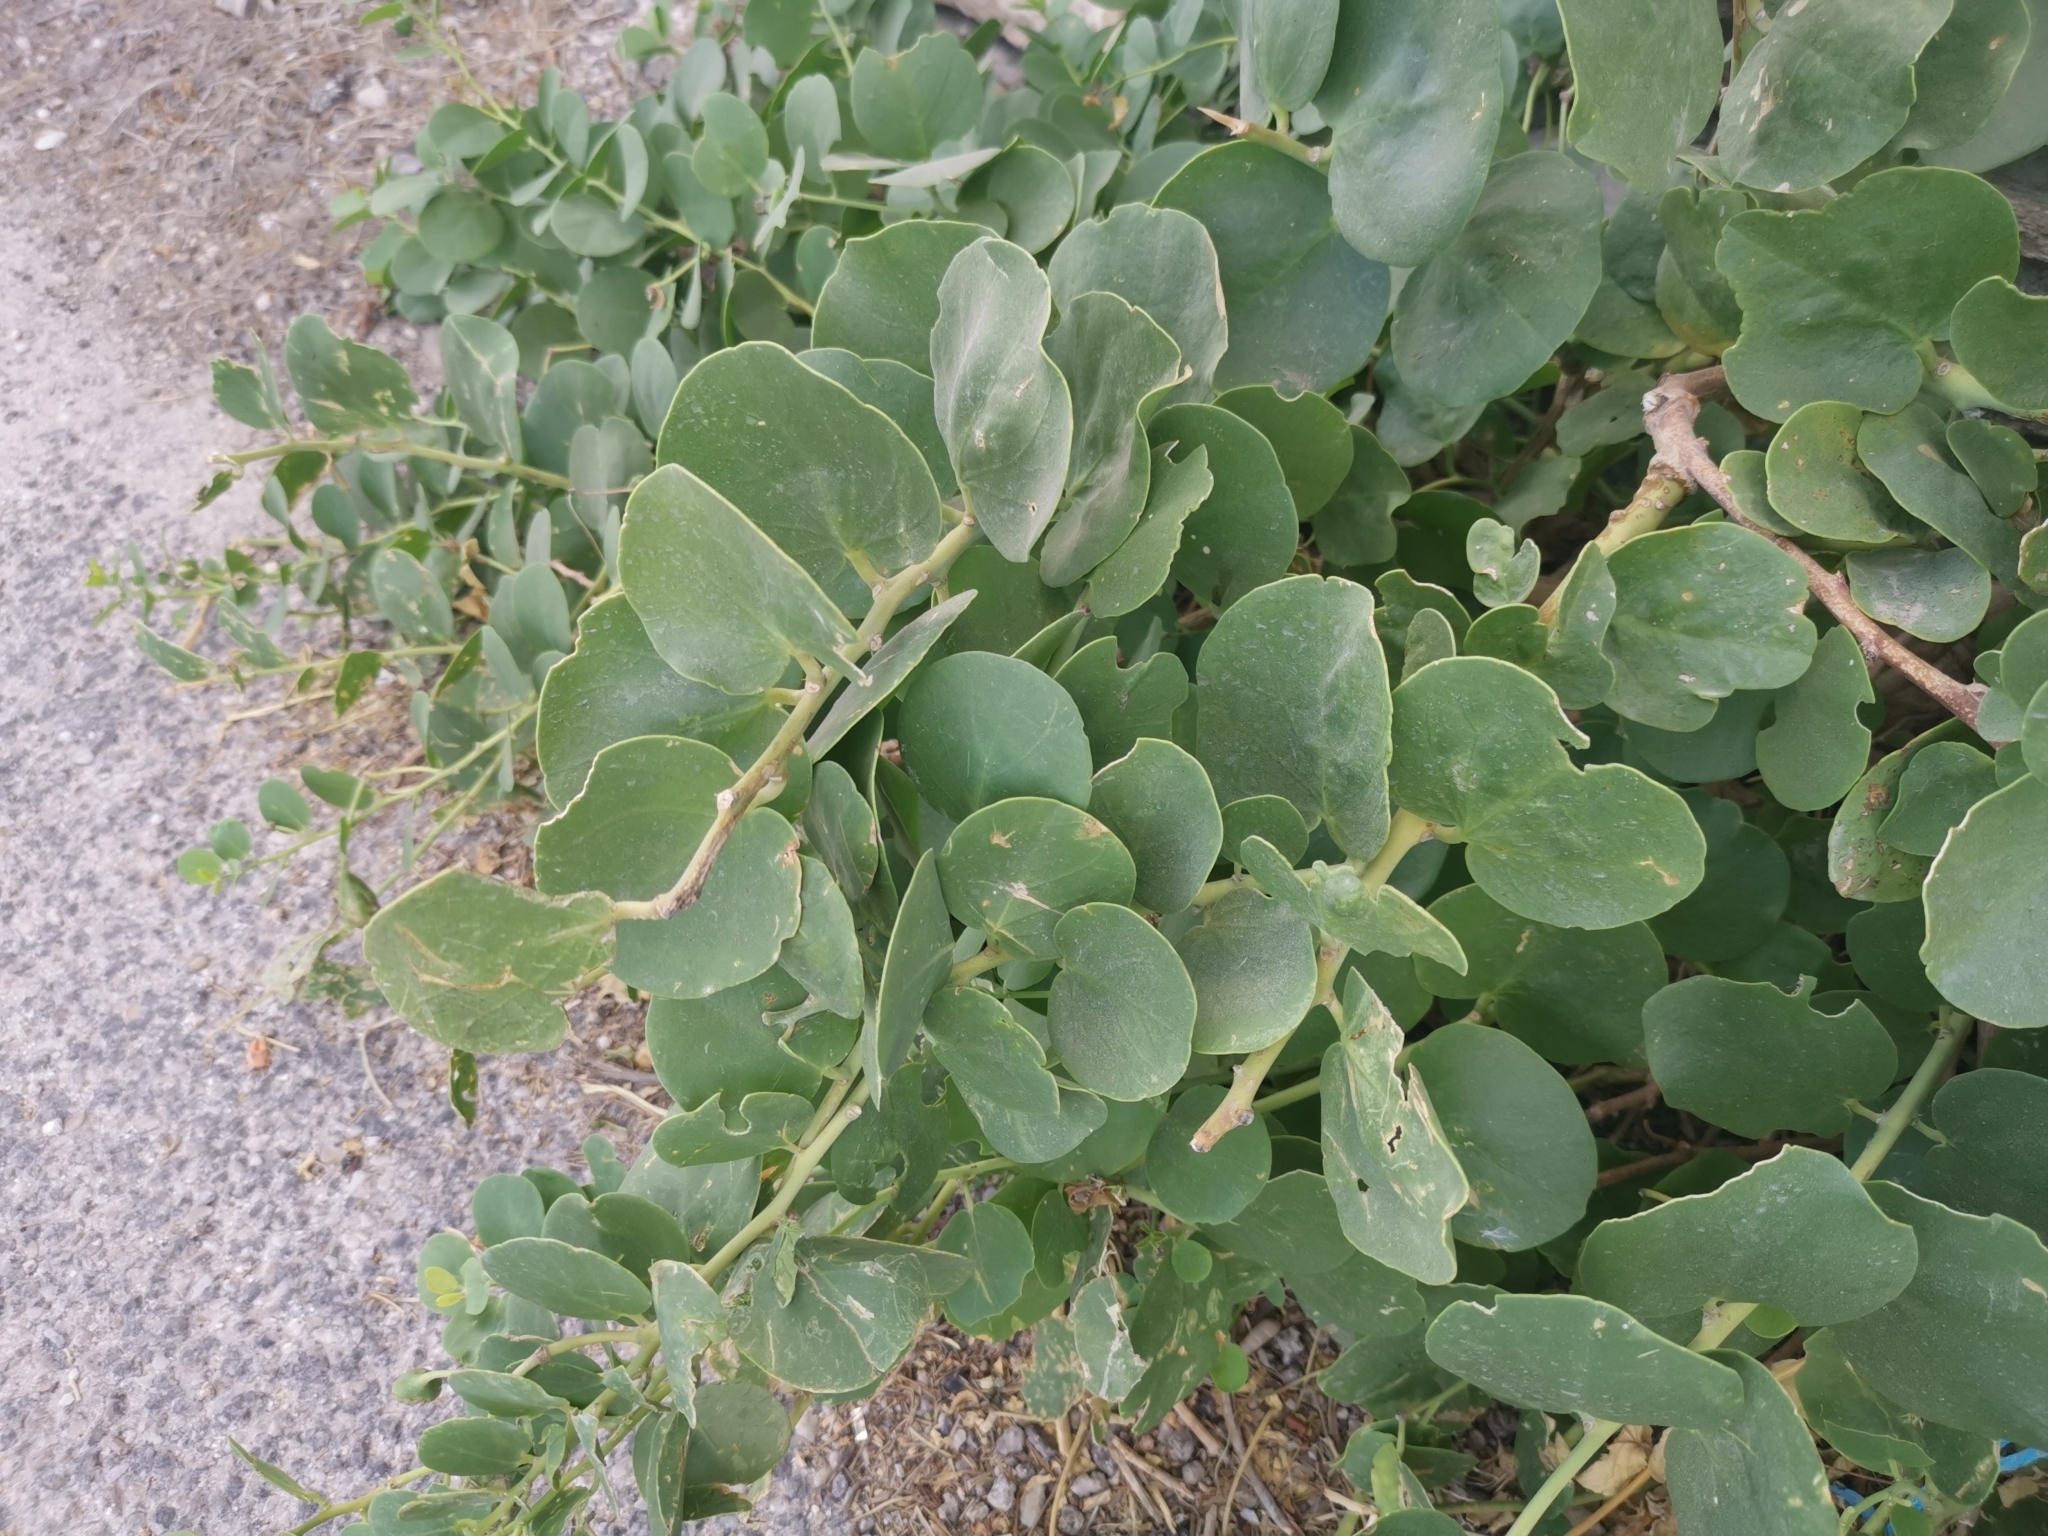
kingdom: Plantae
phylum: Tracheophyta
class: Magnoliopsida
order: Brassicales
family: Capparaceae
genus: Capparis
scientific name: Capparis orientalis
